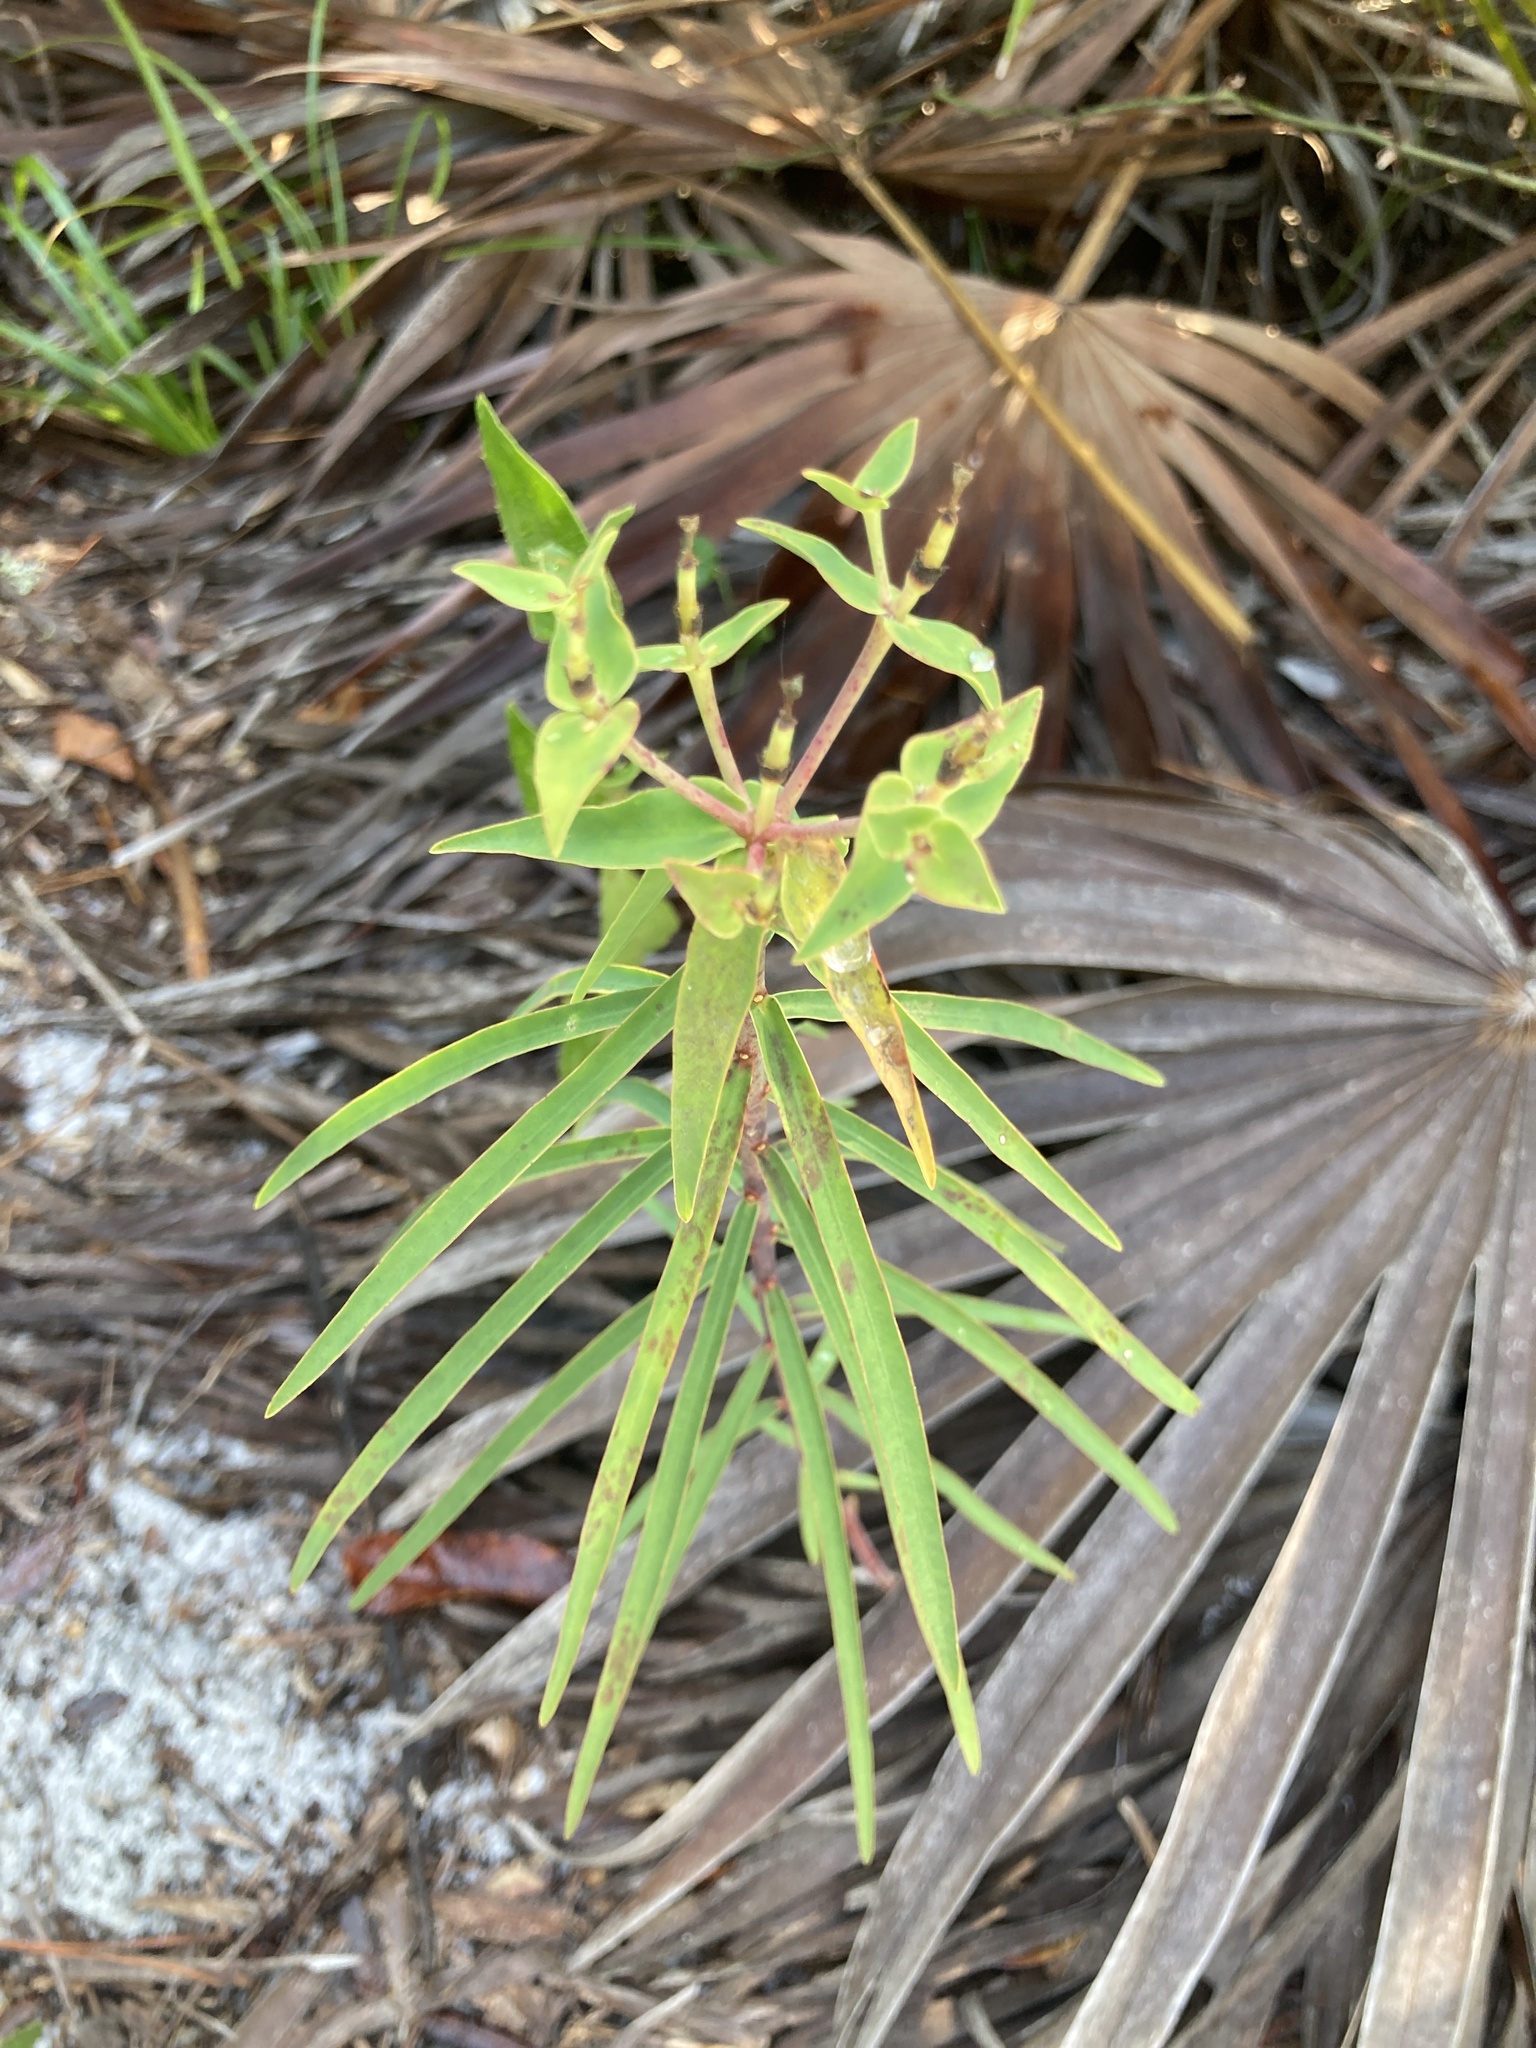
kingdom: Plantae
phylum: Tracheophyta
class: Magnoliopsida
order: Malpighiales
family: Euphorbiaceae
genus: Euphorbia
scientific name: Euphorbia floridana
